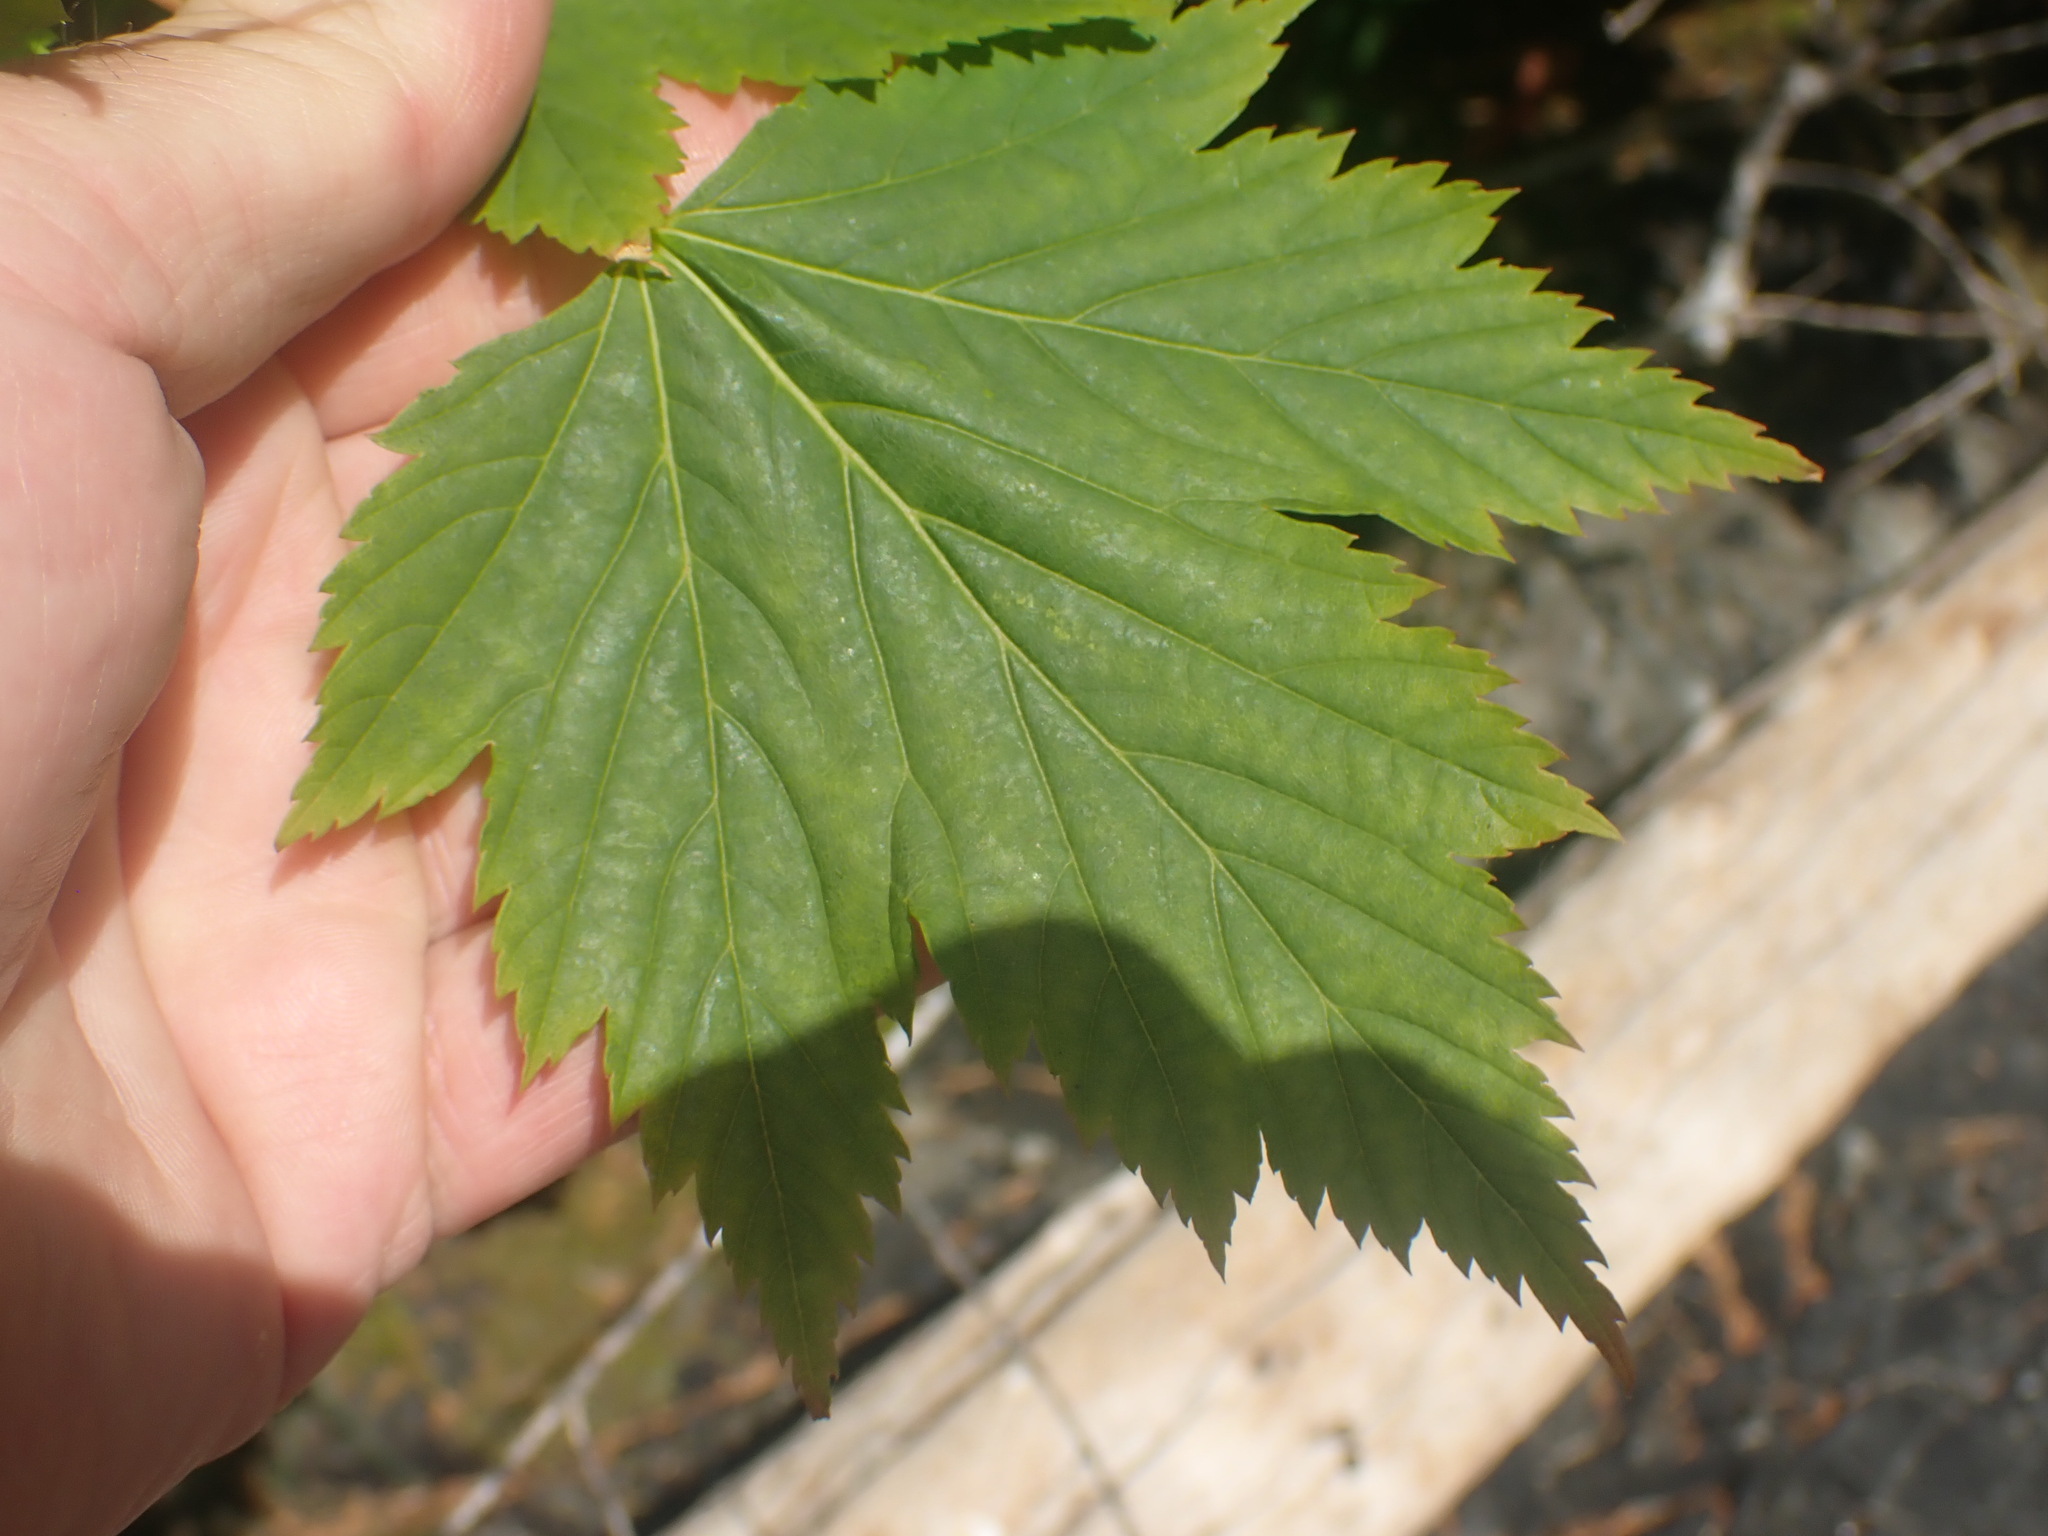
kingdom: Plantae
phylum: Tracheophyta
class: Magnoliopsida
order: Sapindales
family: Sapindaceae
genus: Acer
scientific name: Acer glabrum
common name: Rocky mountain maple
